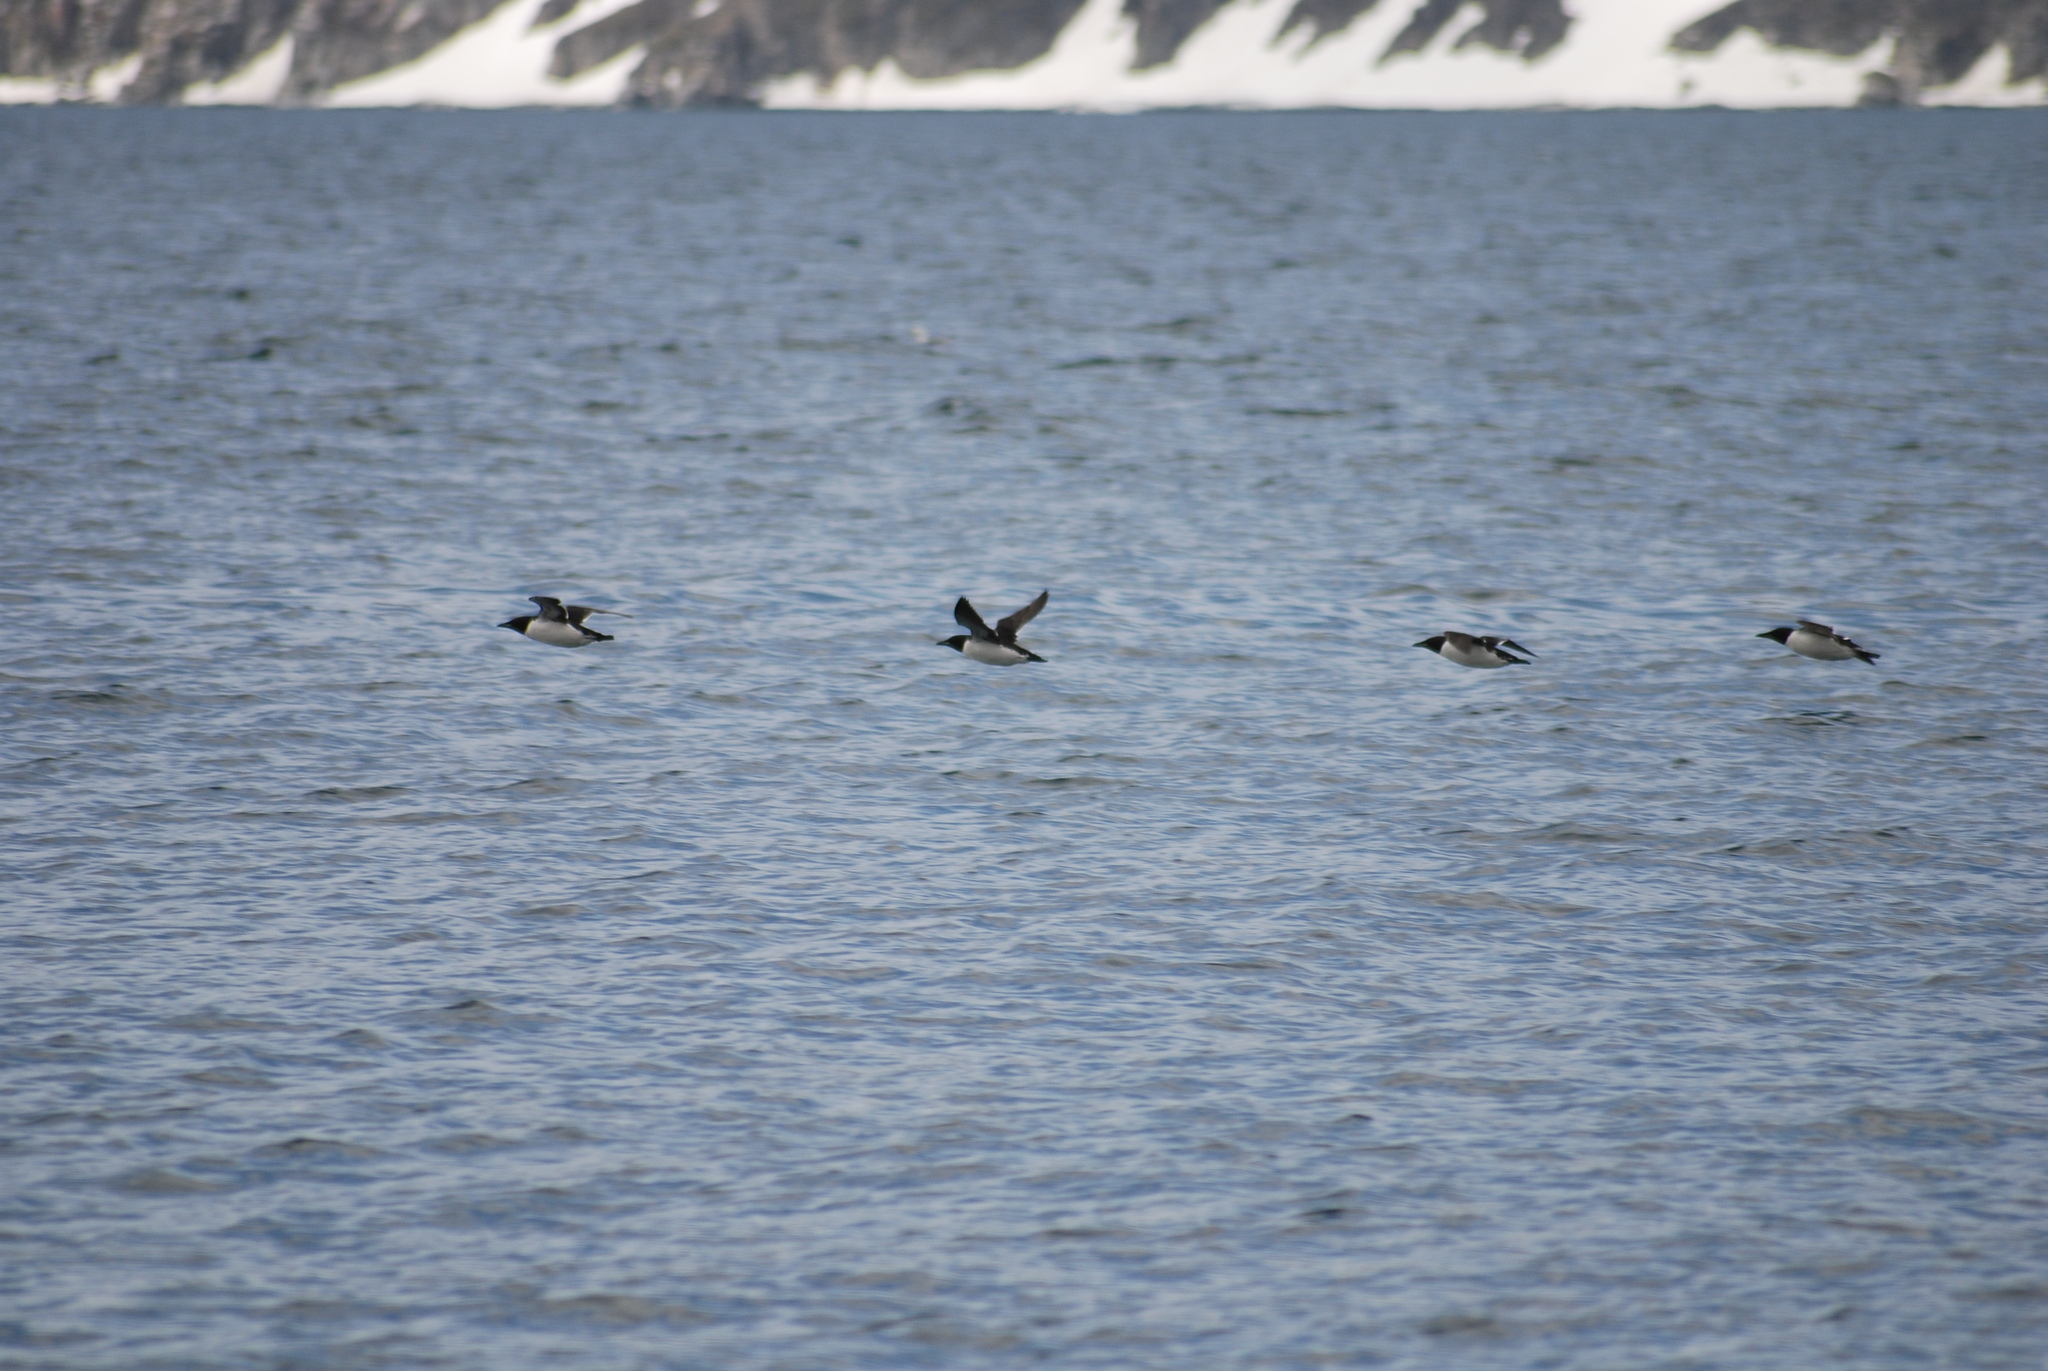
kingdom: Animalia
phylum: Chordata
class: Aves
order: Charadriiformes
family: Alcidae
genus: Uria
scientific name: Uria lomvia
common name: Thick-billed murre
